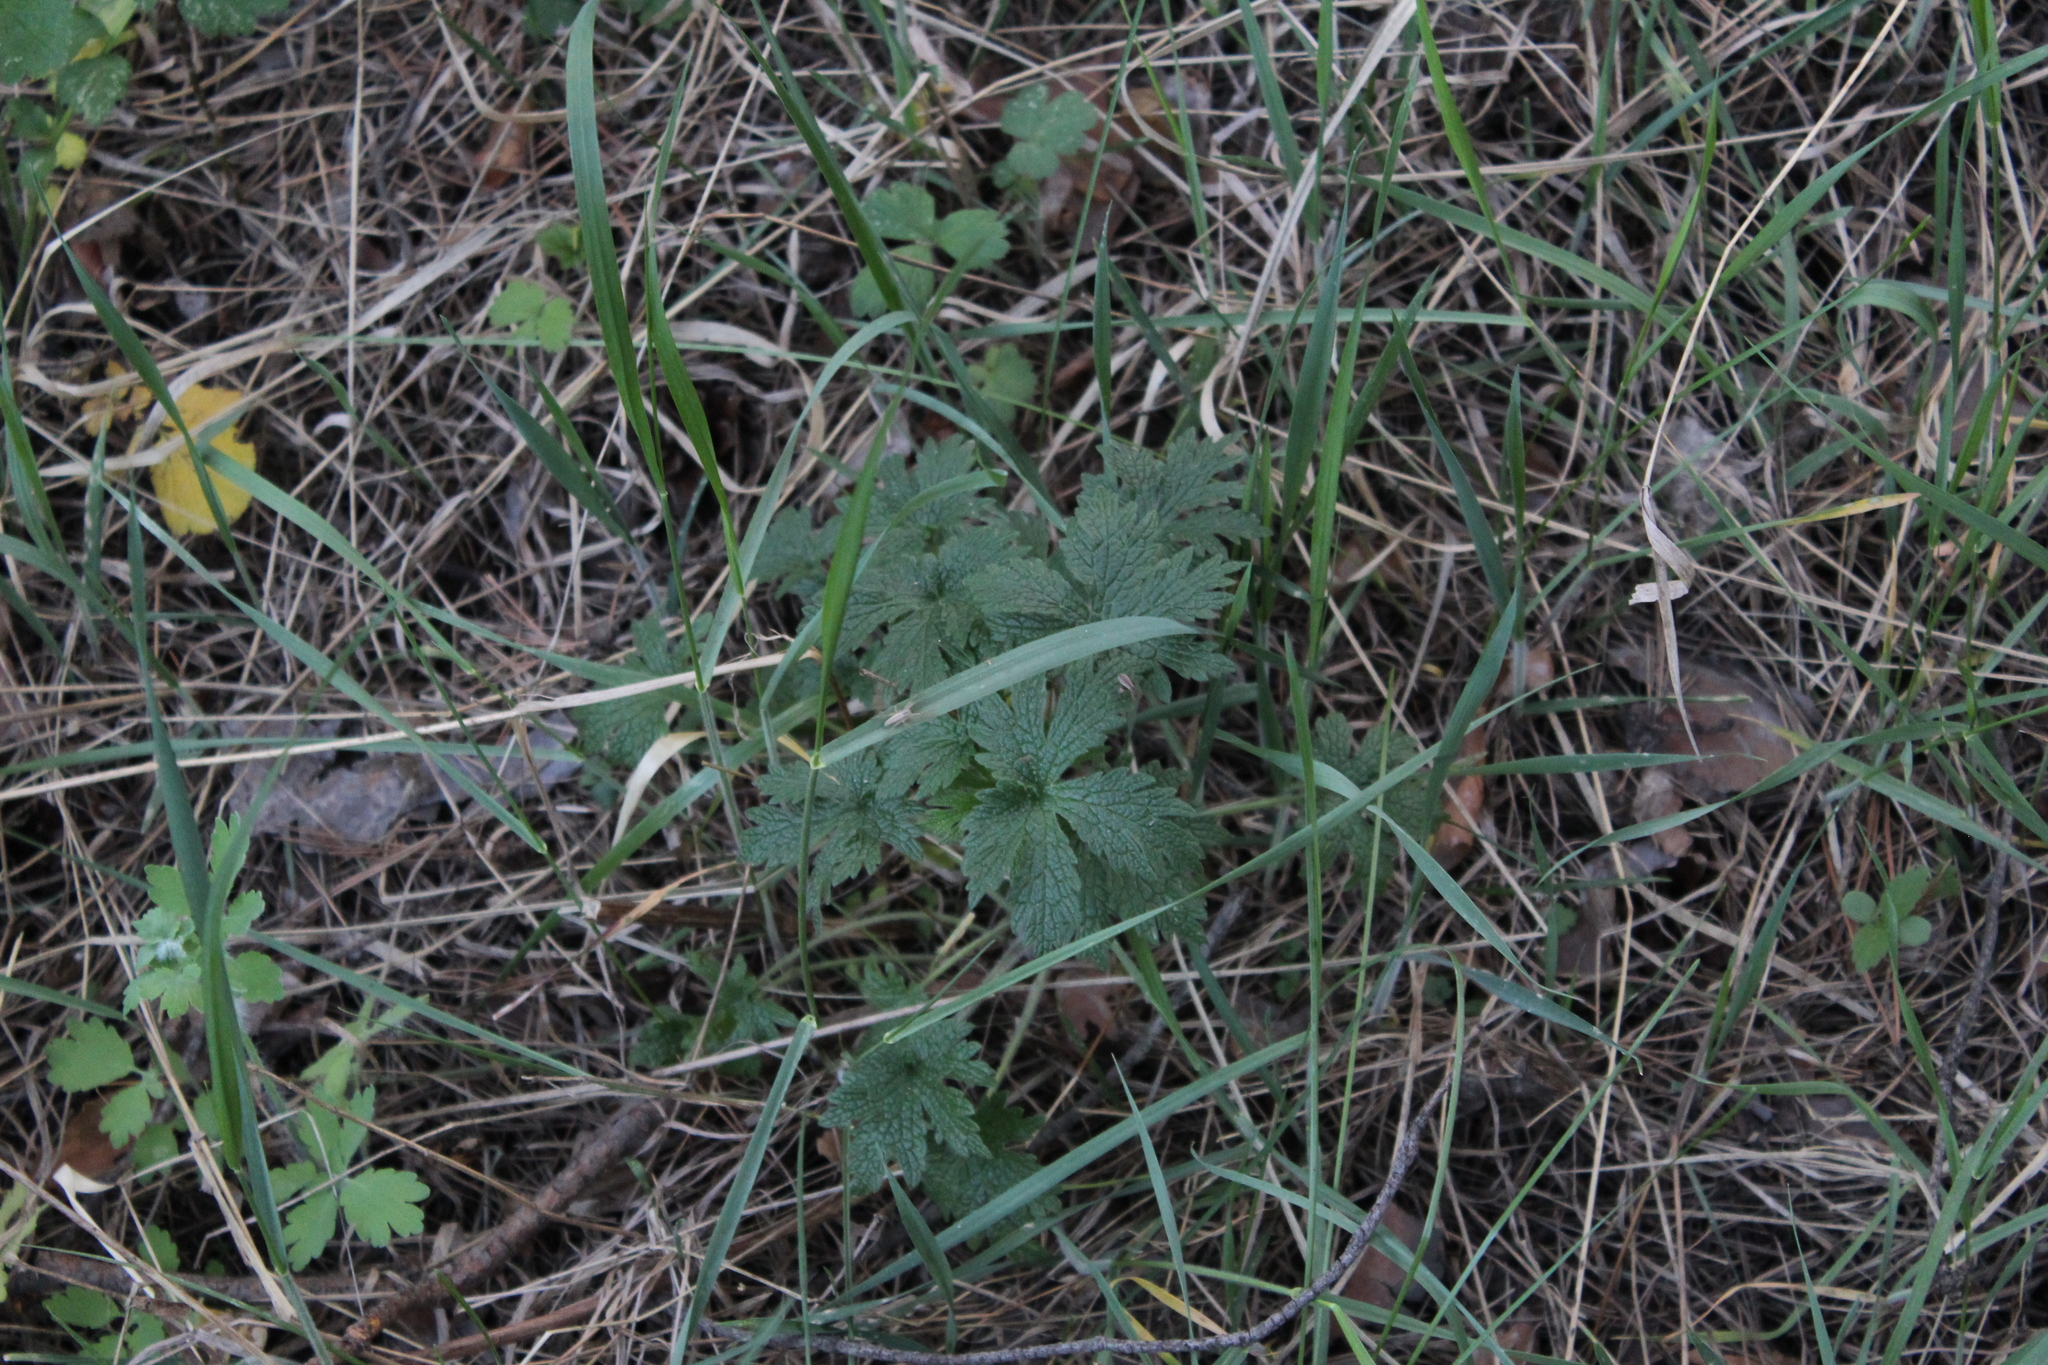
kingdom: Plantae
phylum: Tracheophyta
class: Magnoliopsida
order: Lamiales
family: Lamiaceae
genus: Leonurus
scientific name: Leonurus quinquelobatus
